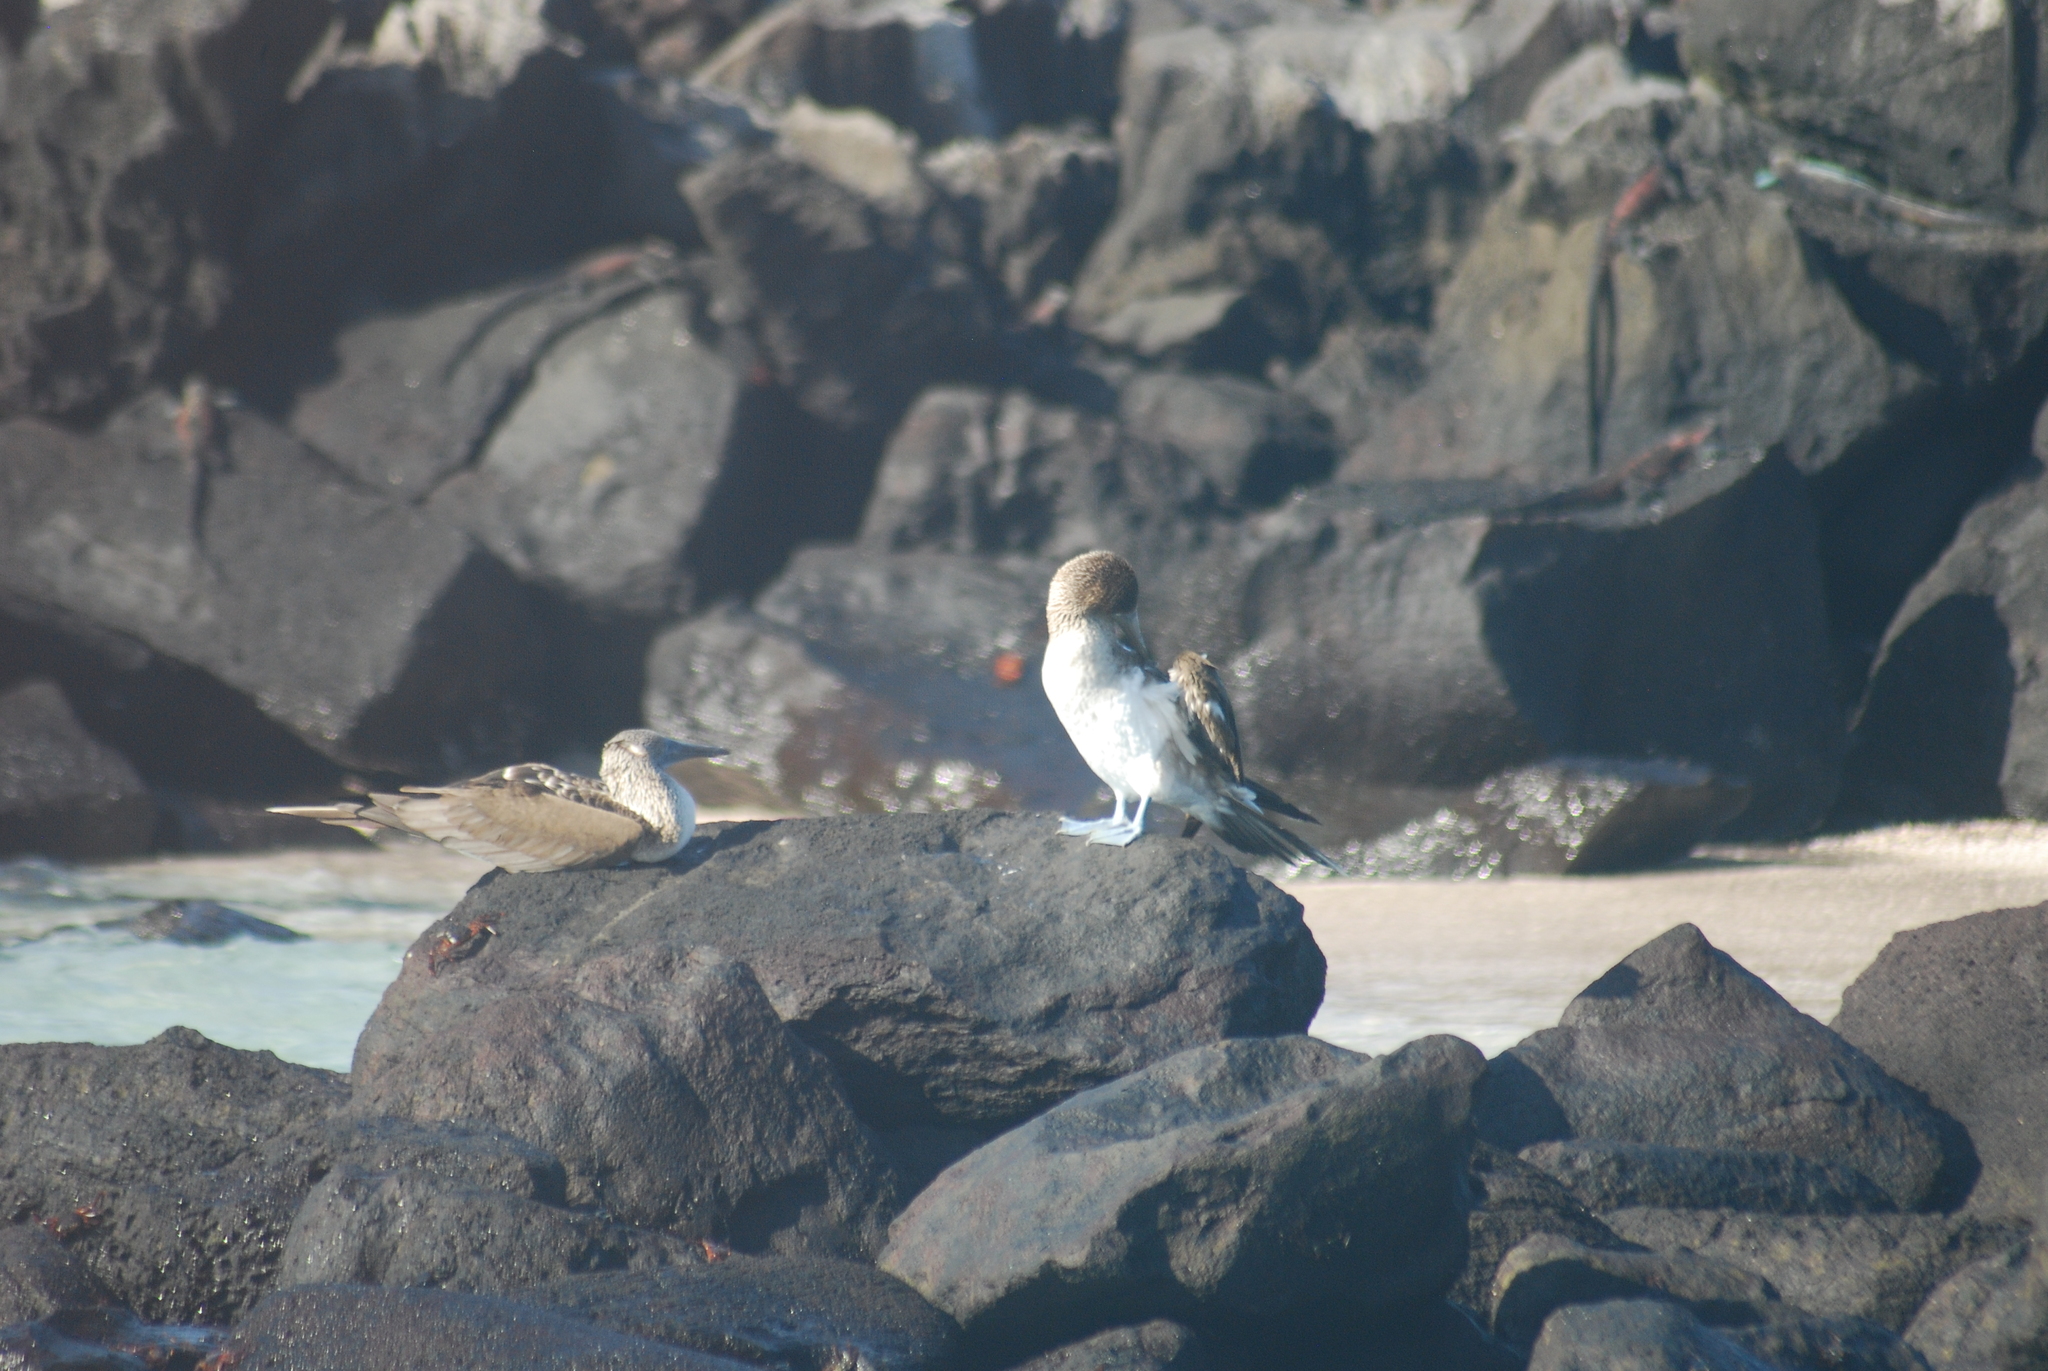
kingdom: Animalia
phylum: Chordata
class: Aves
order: Suliformes
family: Sulidae
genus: Sula
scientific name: Sula nebouxii
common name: Blue-footed booby
